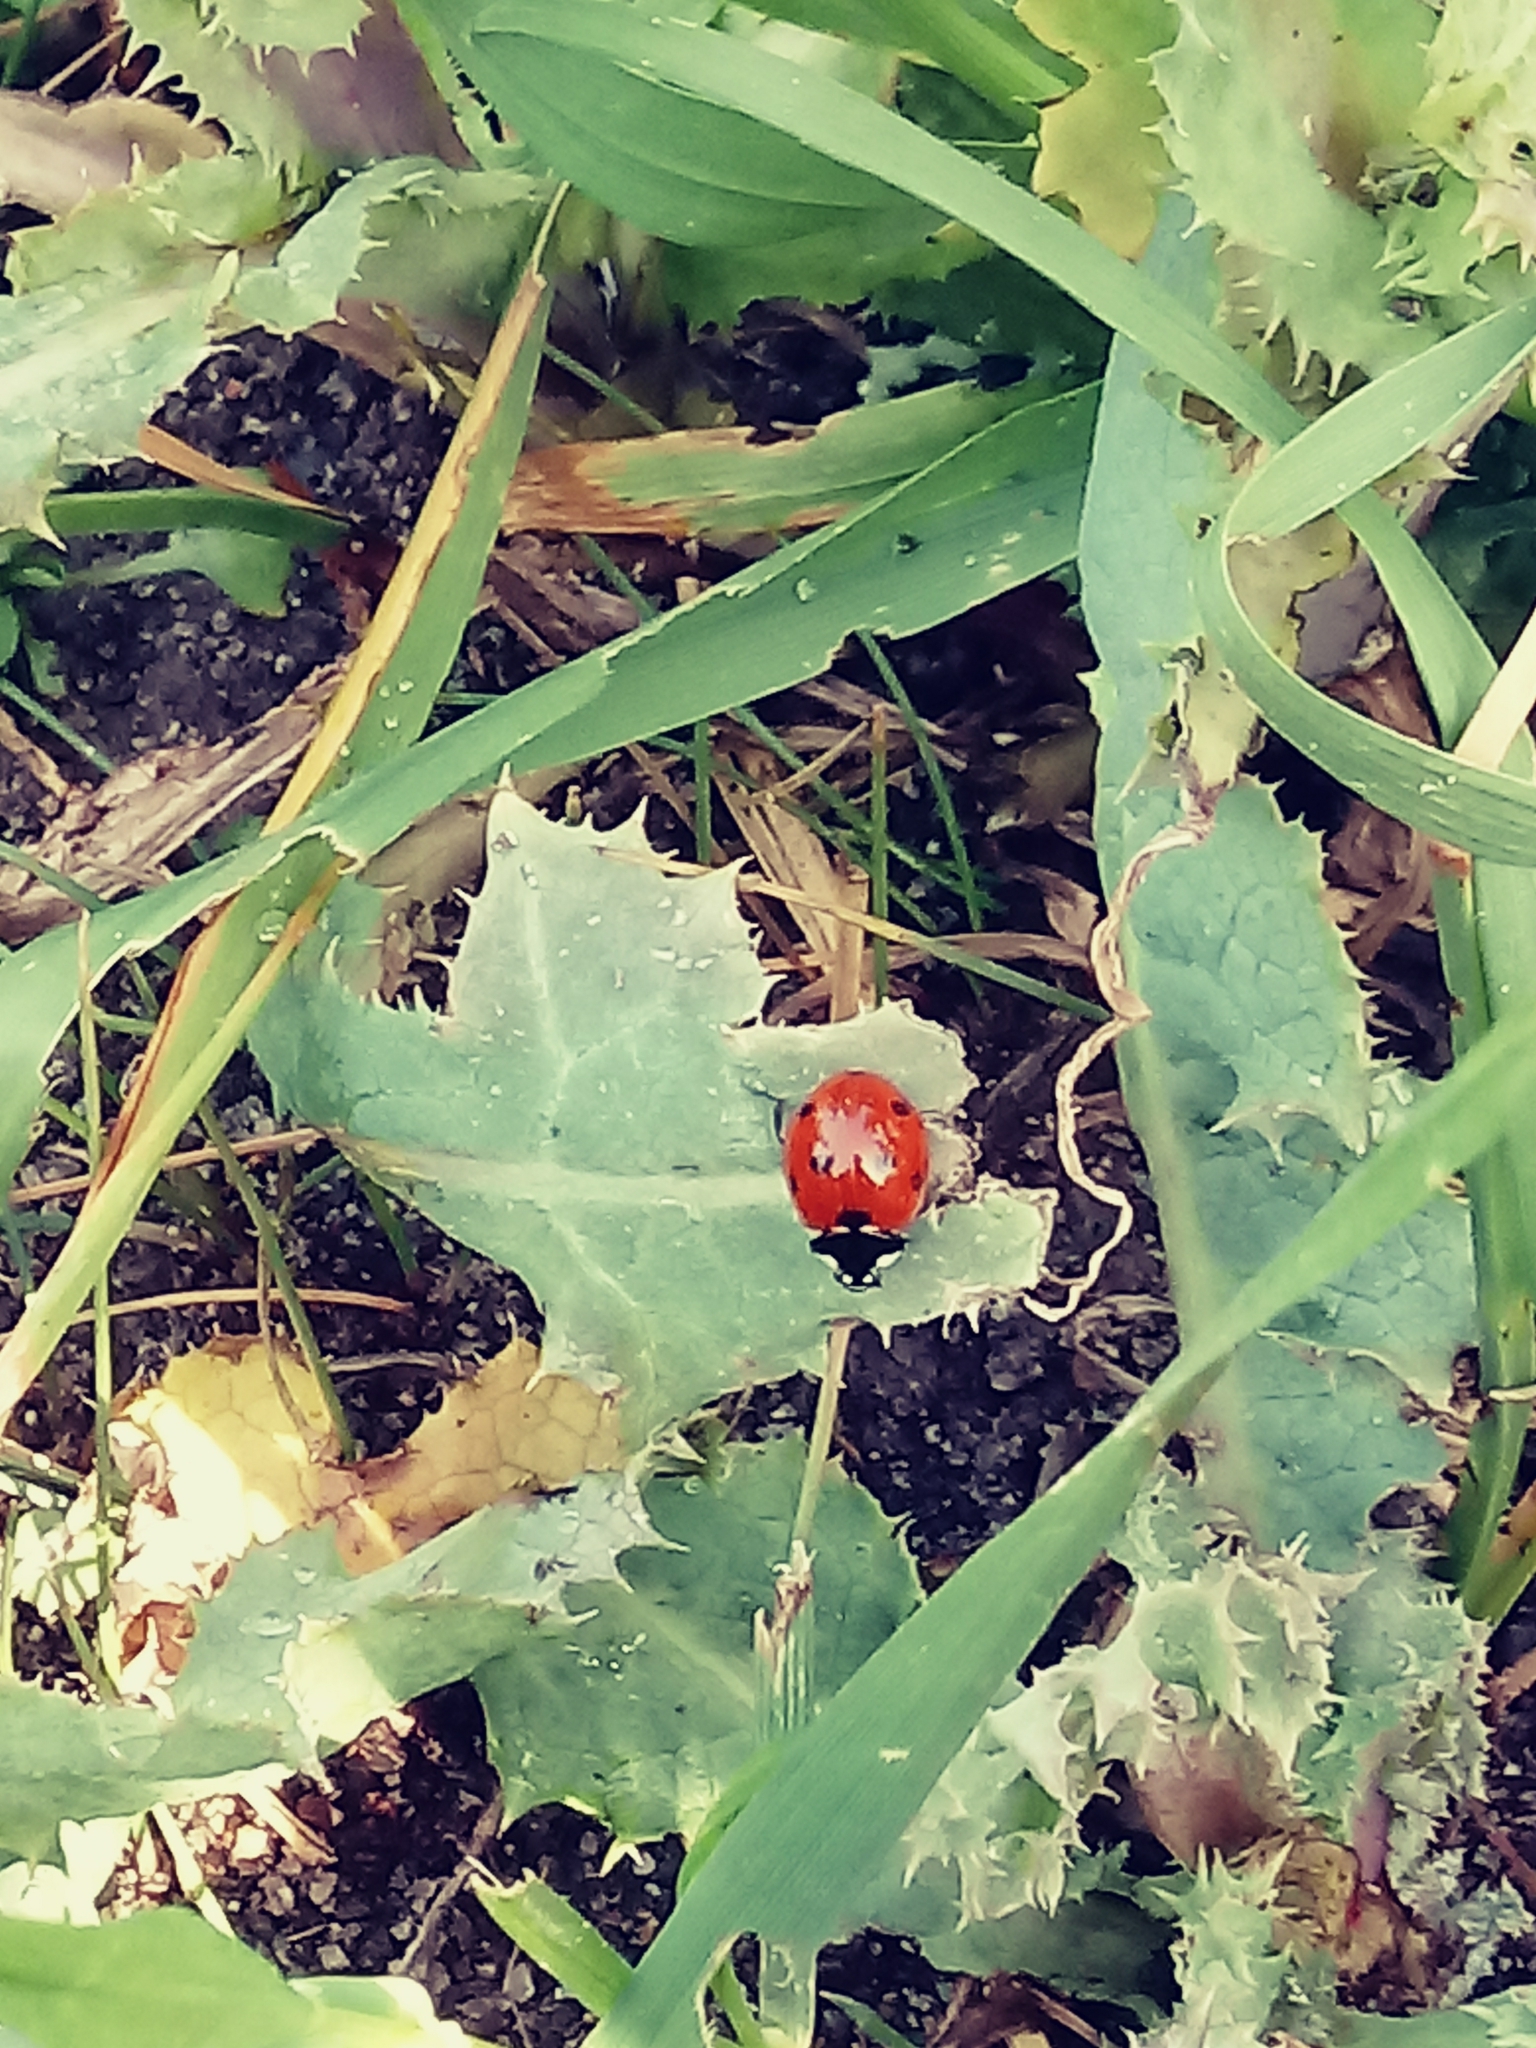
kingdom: Animalia
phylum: Arthropoda
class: Insecta
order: Coleoptera
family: Coccinellidae
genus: Coccinella
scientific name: Coccinella septempunctata
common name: Sevenspotted lady beetle
